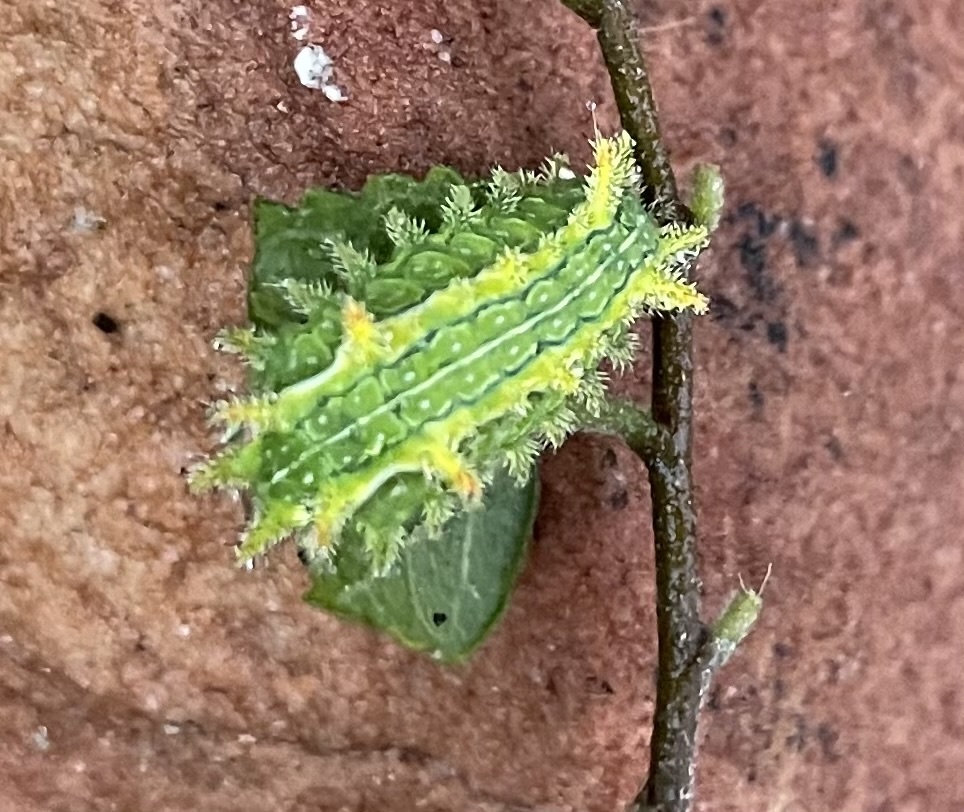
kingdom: Animalia
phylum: Arthropoda
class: Insecta
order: Lepidoptera
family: Limacodidae
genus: Euclea
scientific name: Euclea incisa
